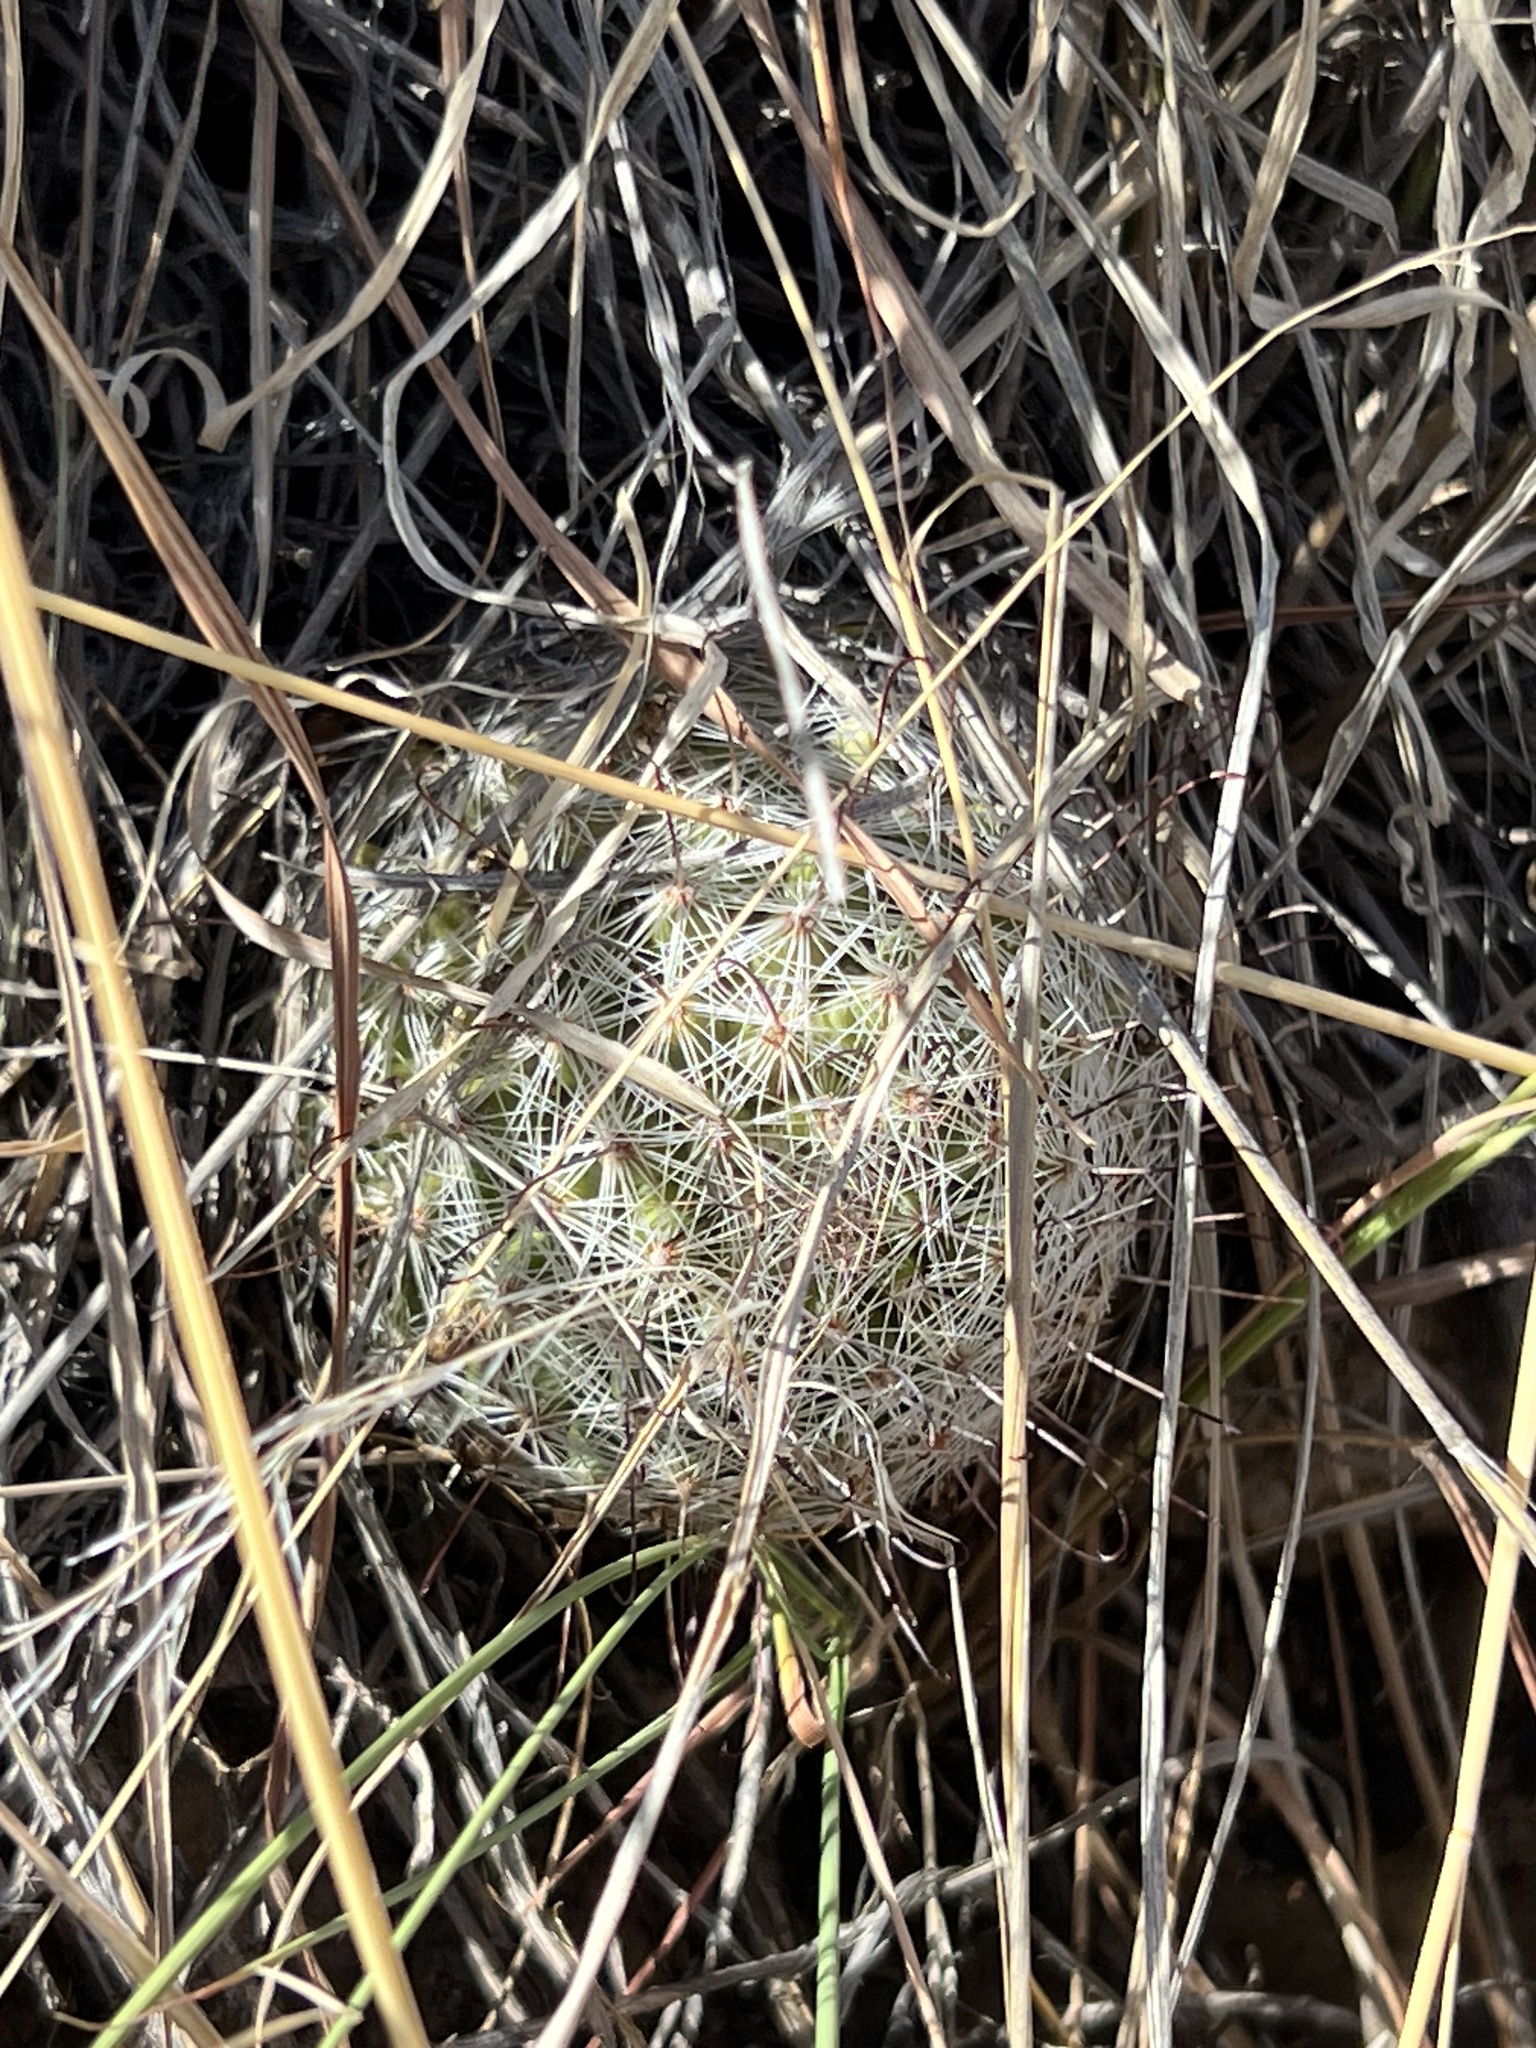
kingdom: Plantae
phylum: Tracheophyta
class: Magnoliopsida
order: Caryophyllales
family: Cactaceae
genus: Cochemiea
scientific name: Cochemiea grahamii
